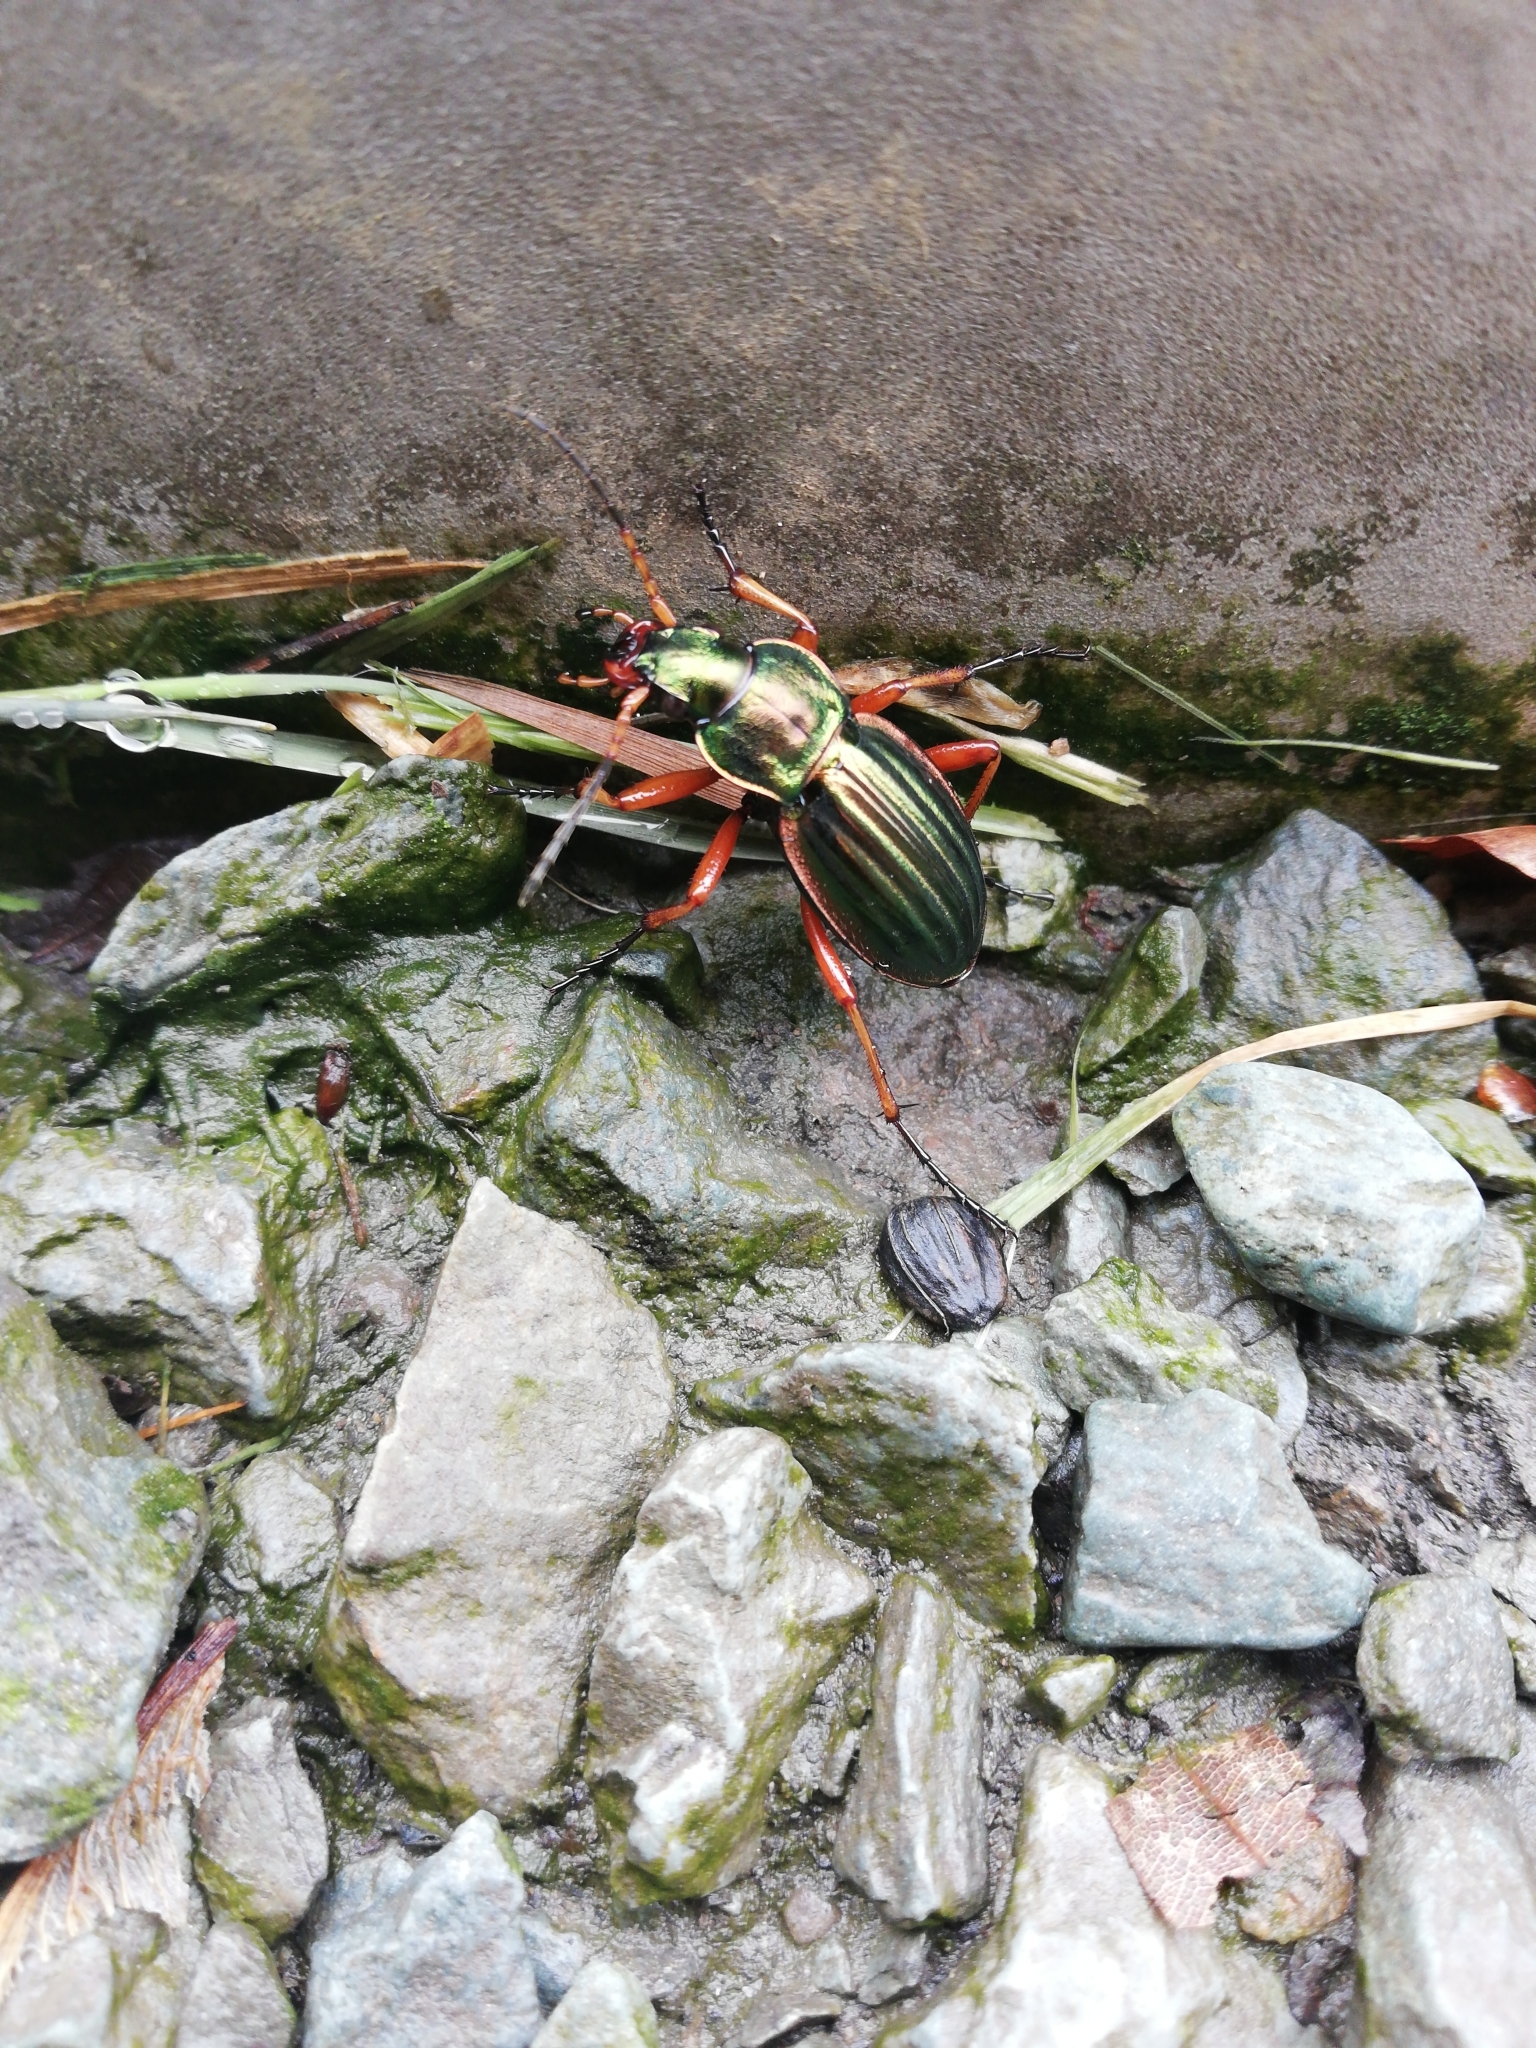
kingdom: Animalia
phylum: Arthropoda
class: Insecta
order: Coleoptera
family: Carabidae
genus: Carabus
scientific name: Carabus auratus
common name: Golden ground beetle
